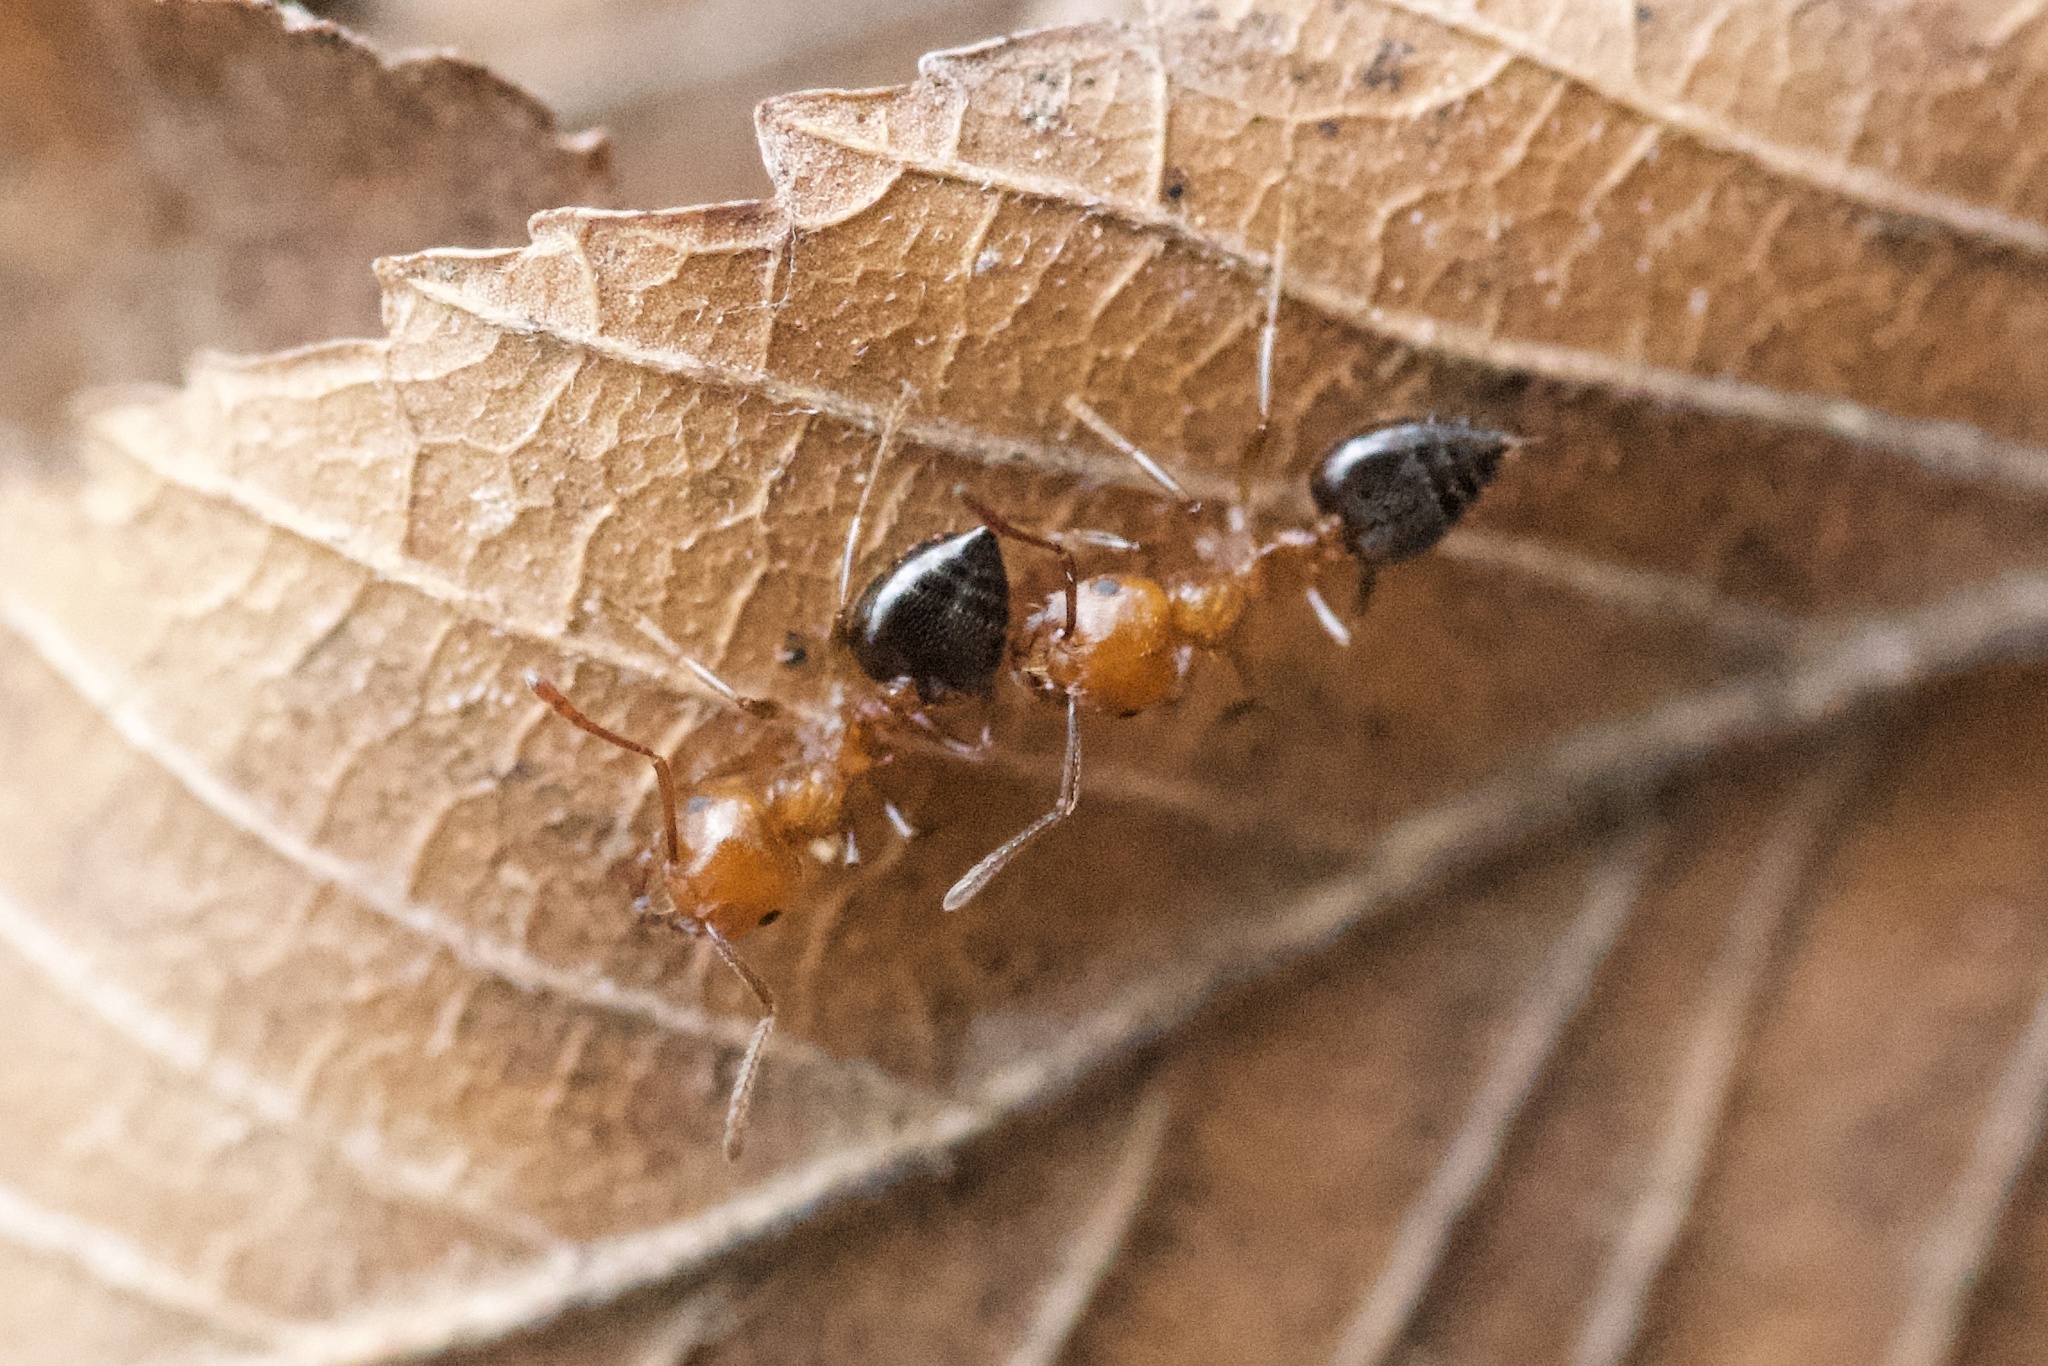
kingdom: Animalia
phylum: Arthropoda
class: Insecta
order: Hymenoptera
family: Formicidae
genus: Crematogaster
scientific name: Crematogaster laeviuscula
